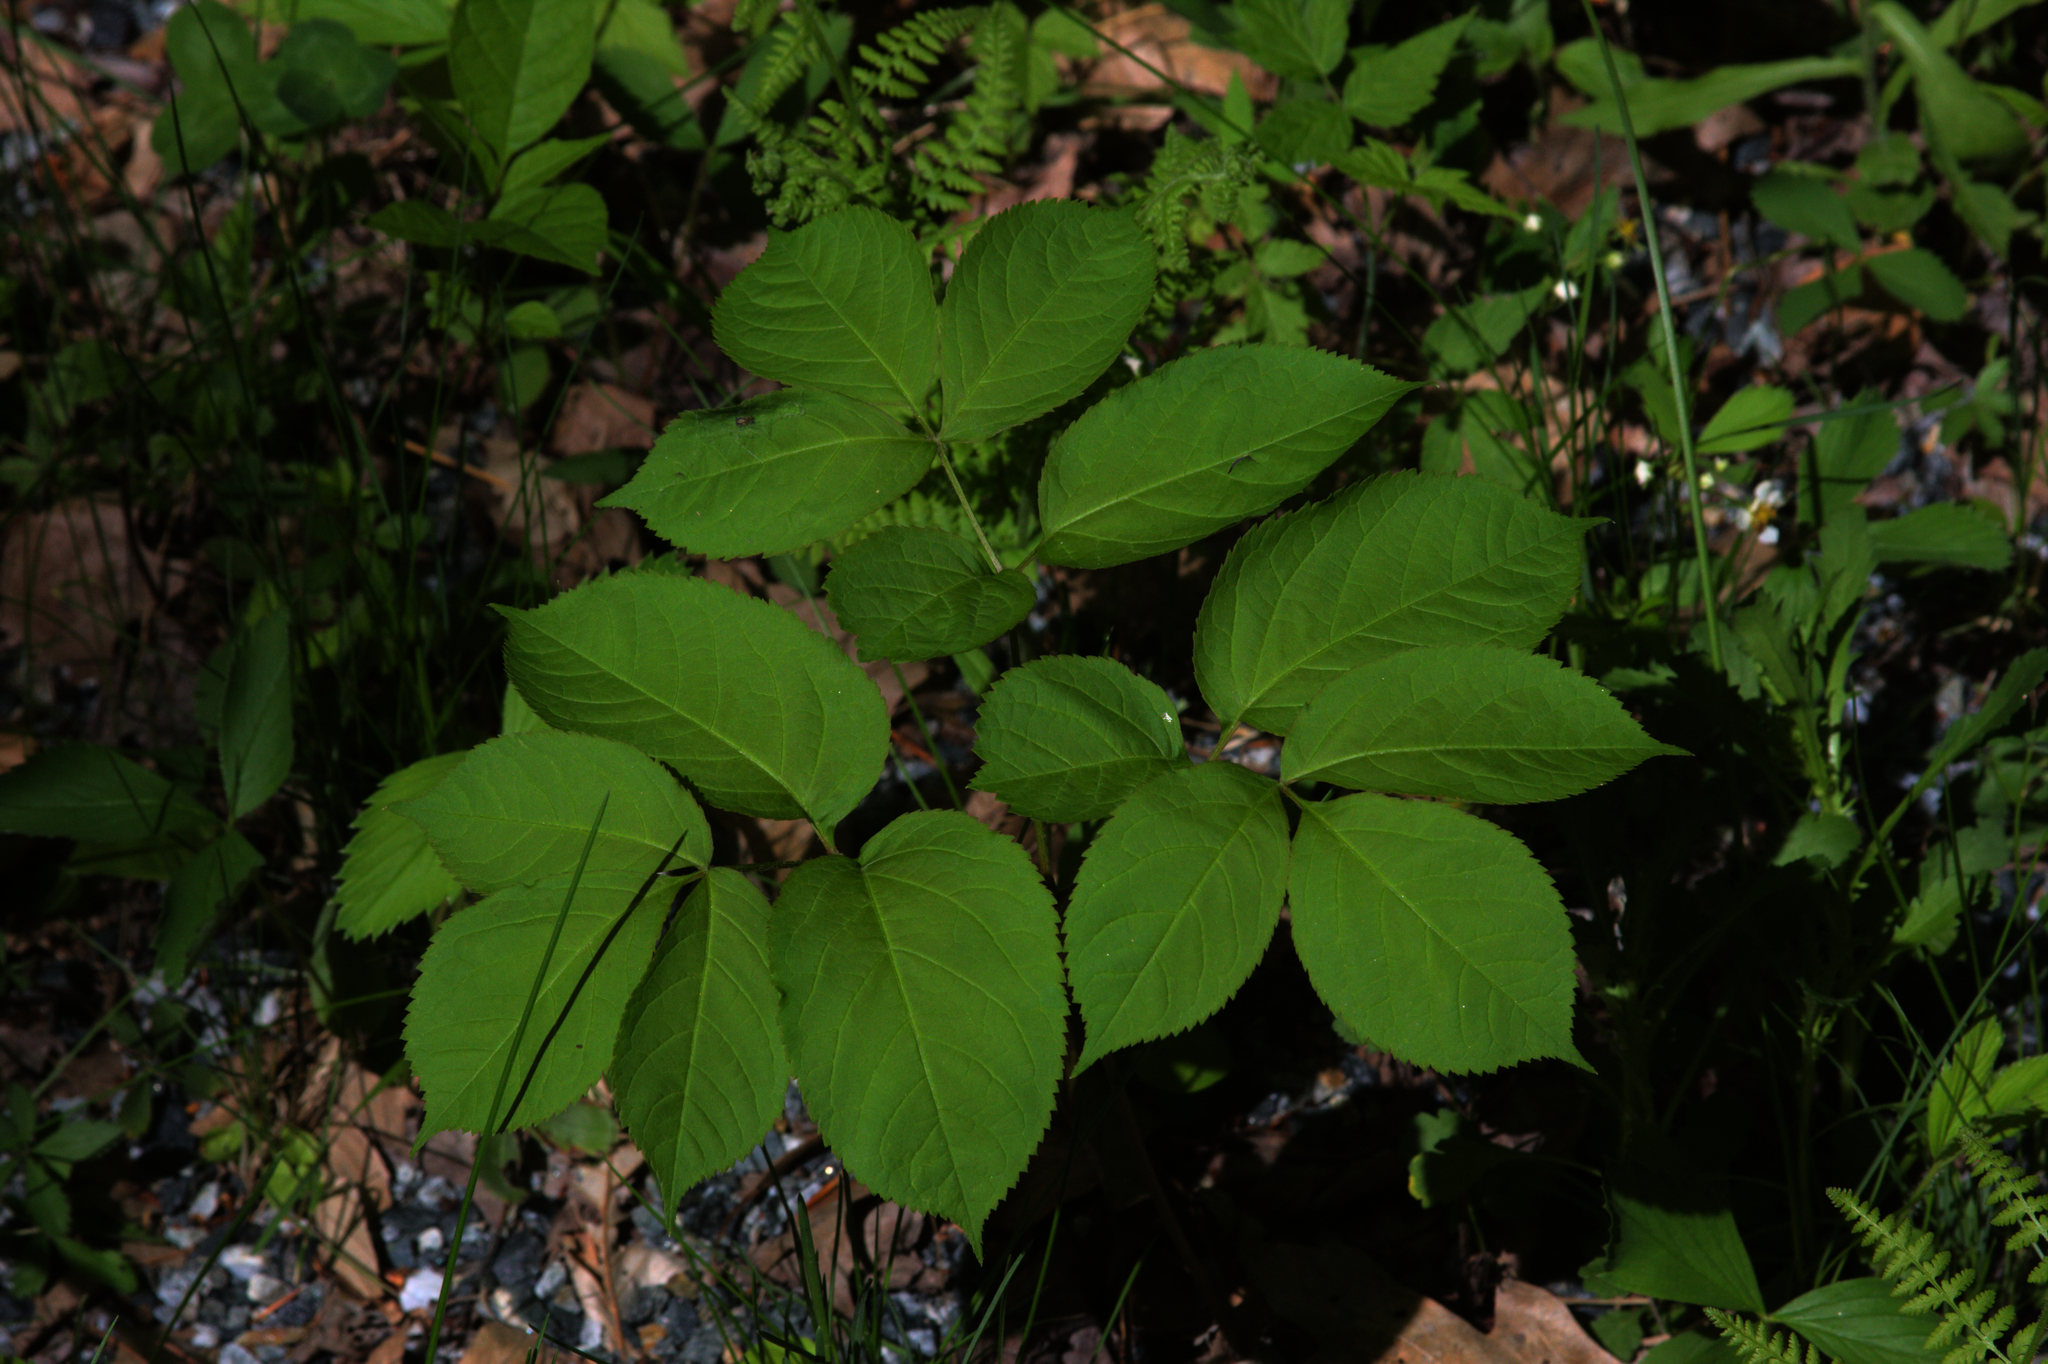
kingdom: Plantae
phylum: Tracheophyta
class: Magnoliopsida
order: Apiales
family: Araliaceae
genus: Aralia
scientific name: Aralia nudicaulis
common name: Wild sarsaparilla
